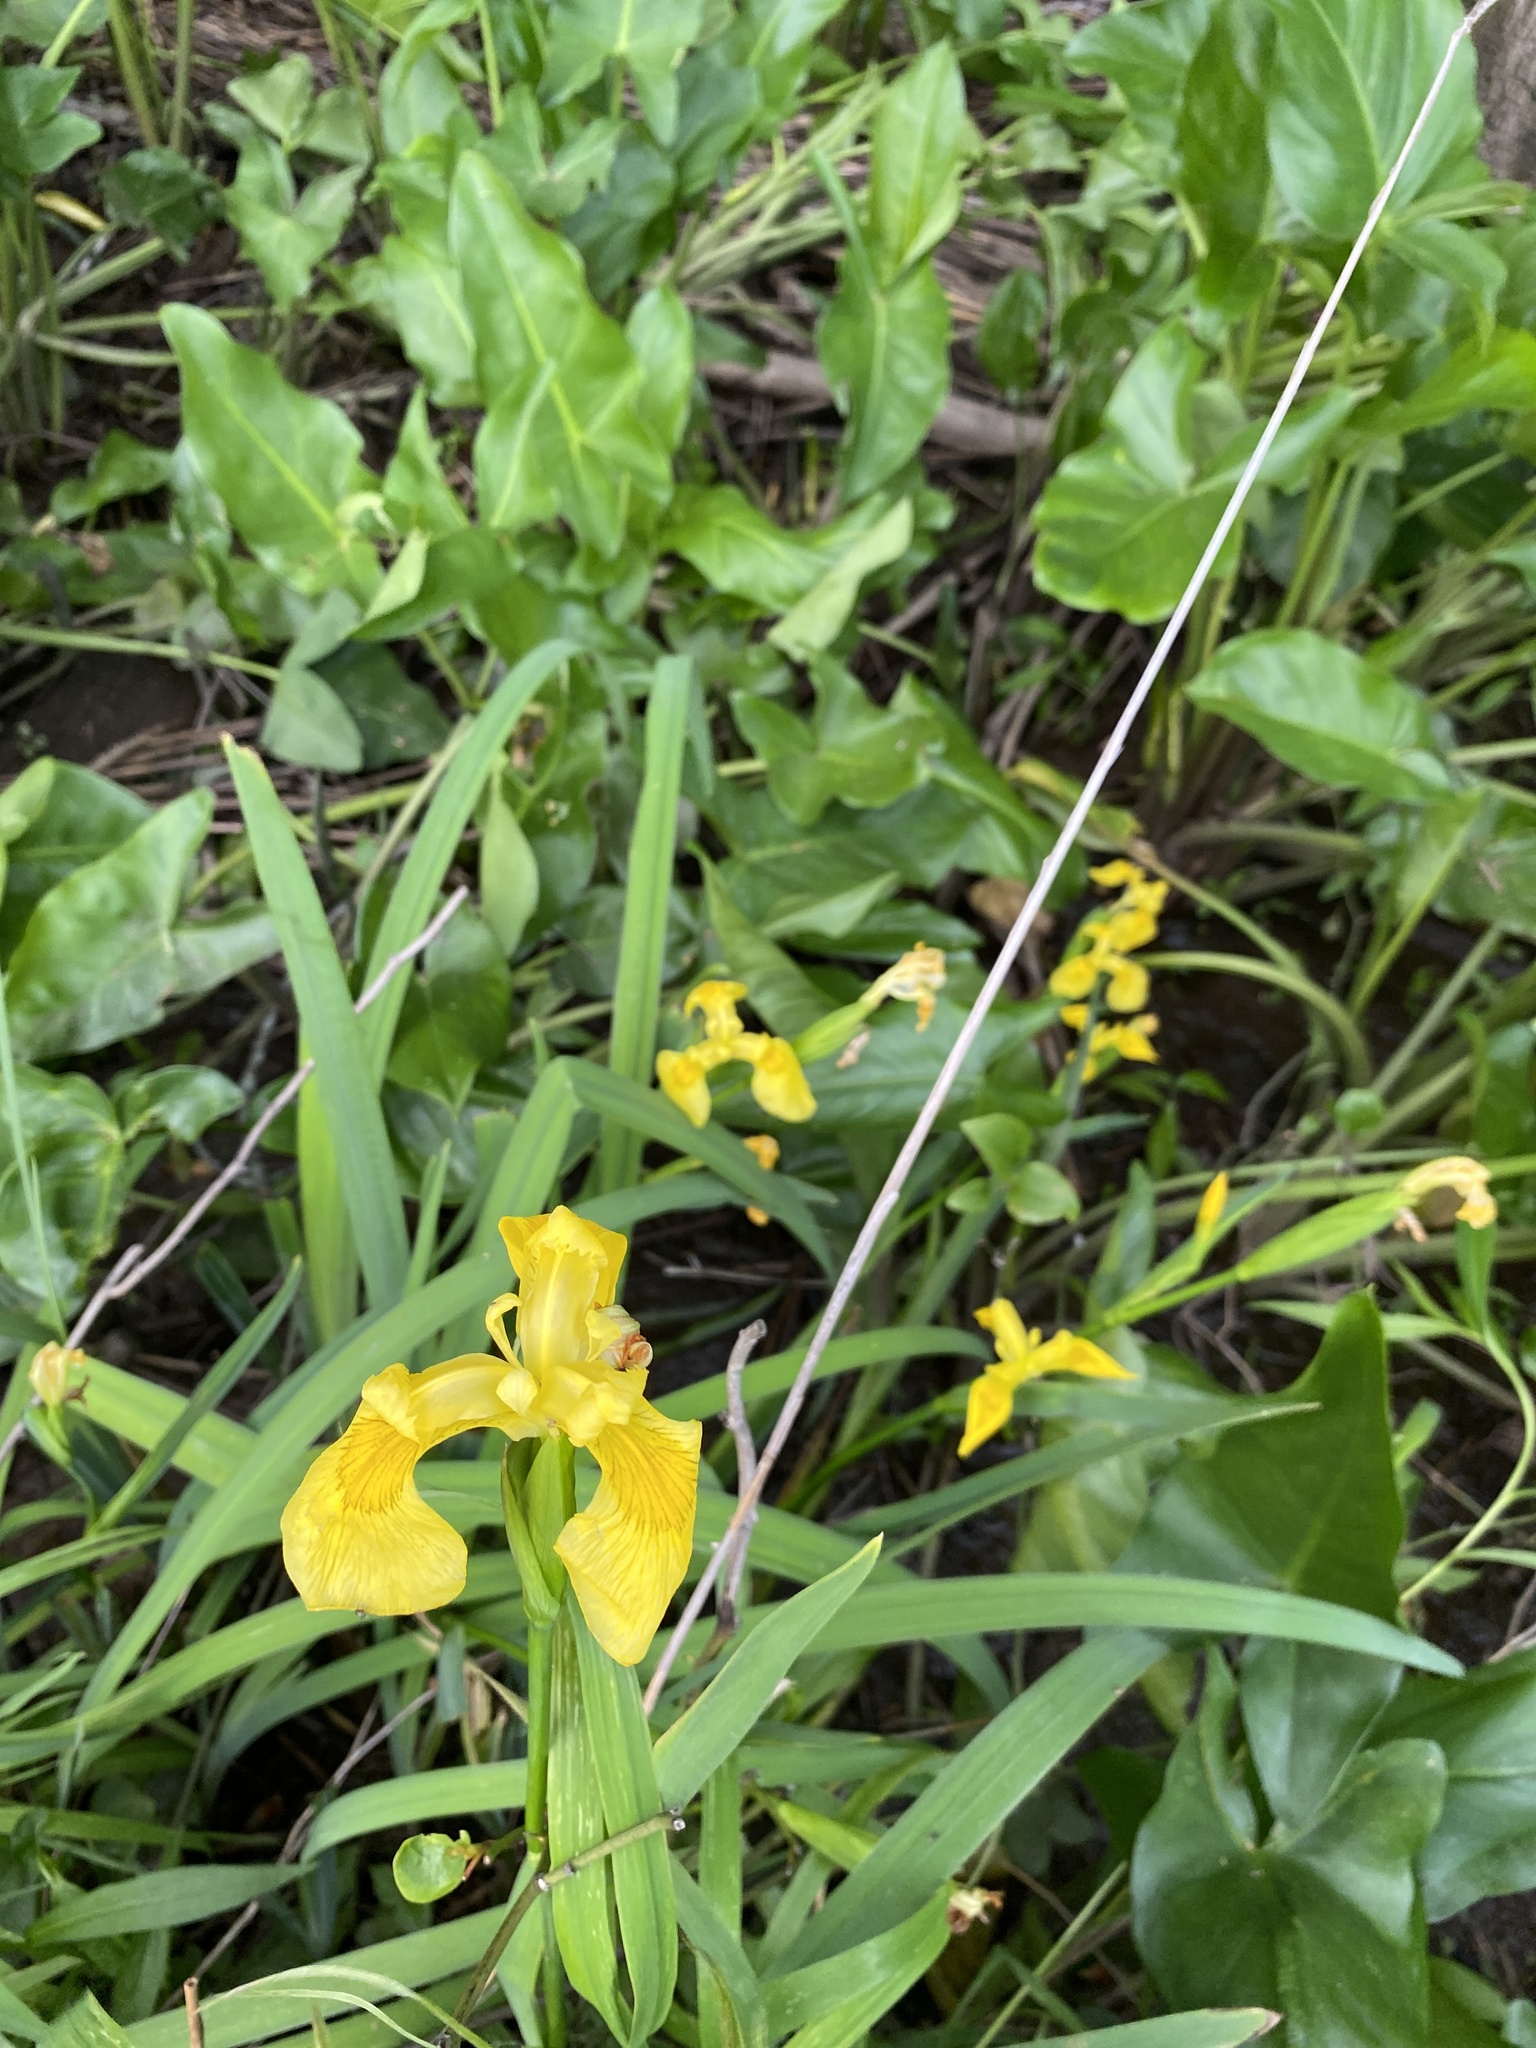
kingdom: Plantae
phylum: Tracheophyta
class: Liliopsida
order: Asparagales
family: Iridaceae
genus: Iris
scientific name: Iris pseudacorus
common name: Yellow flag
